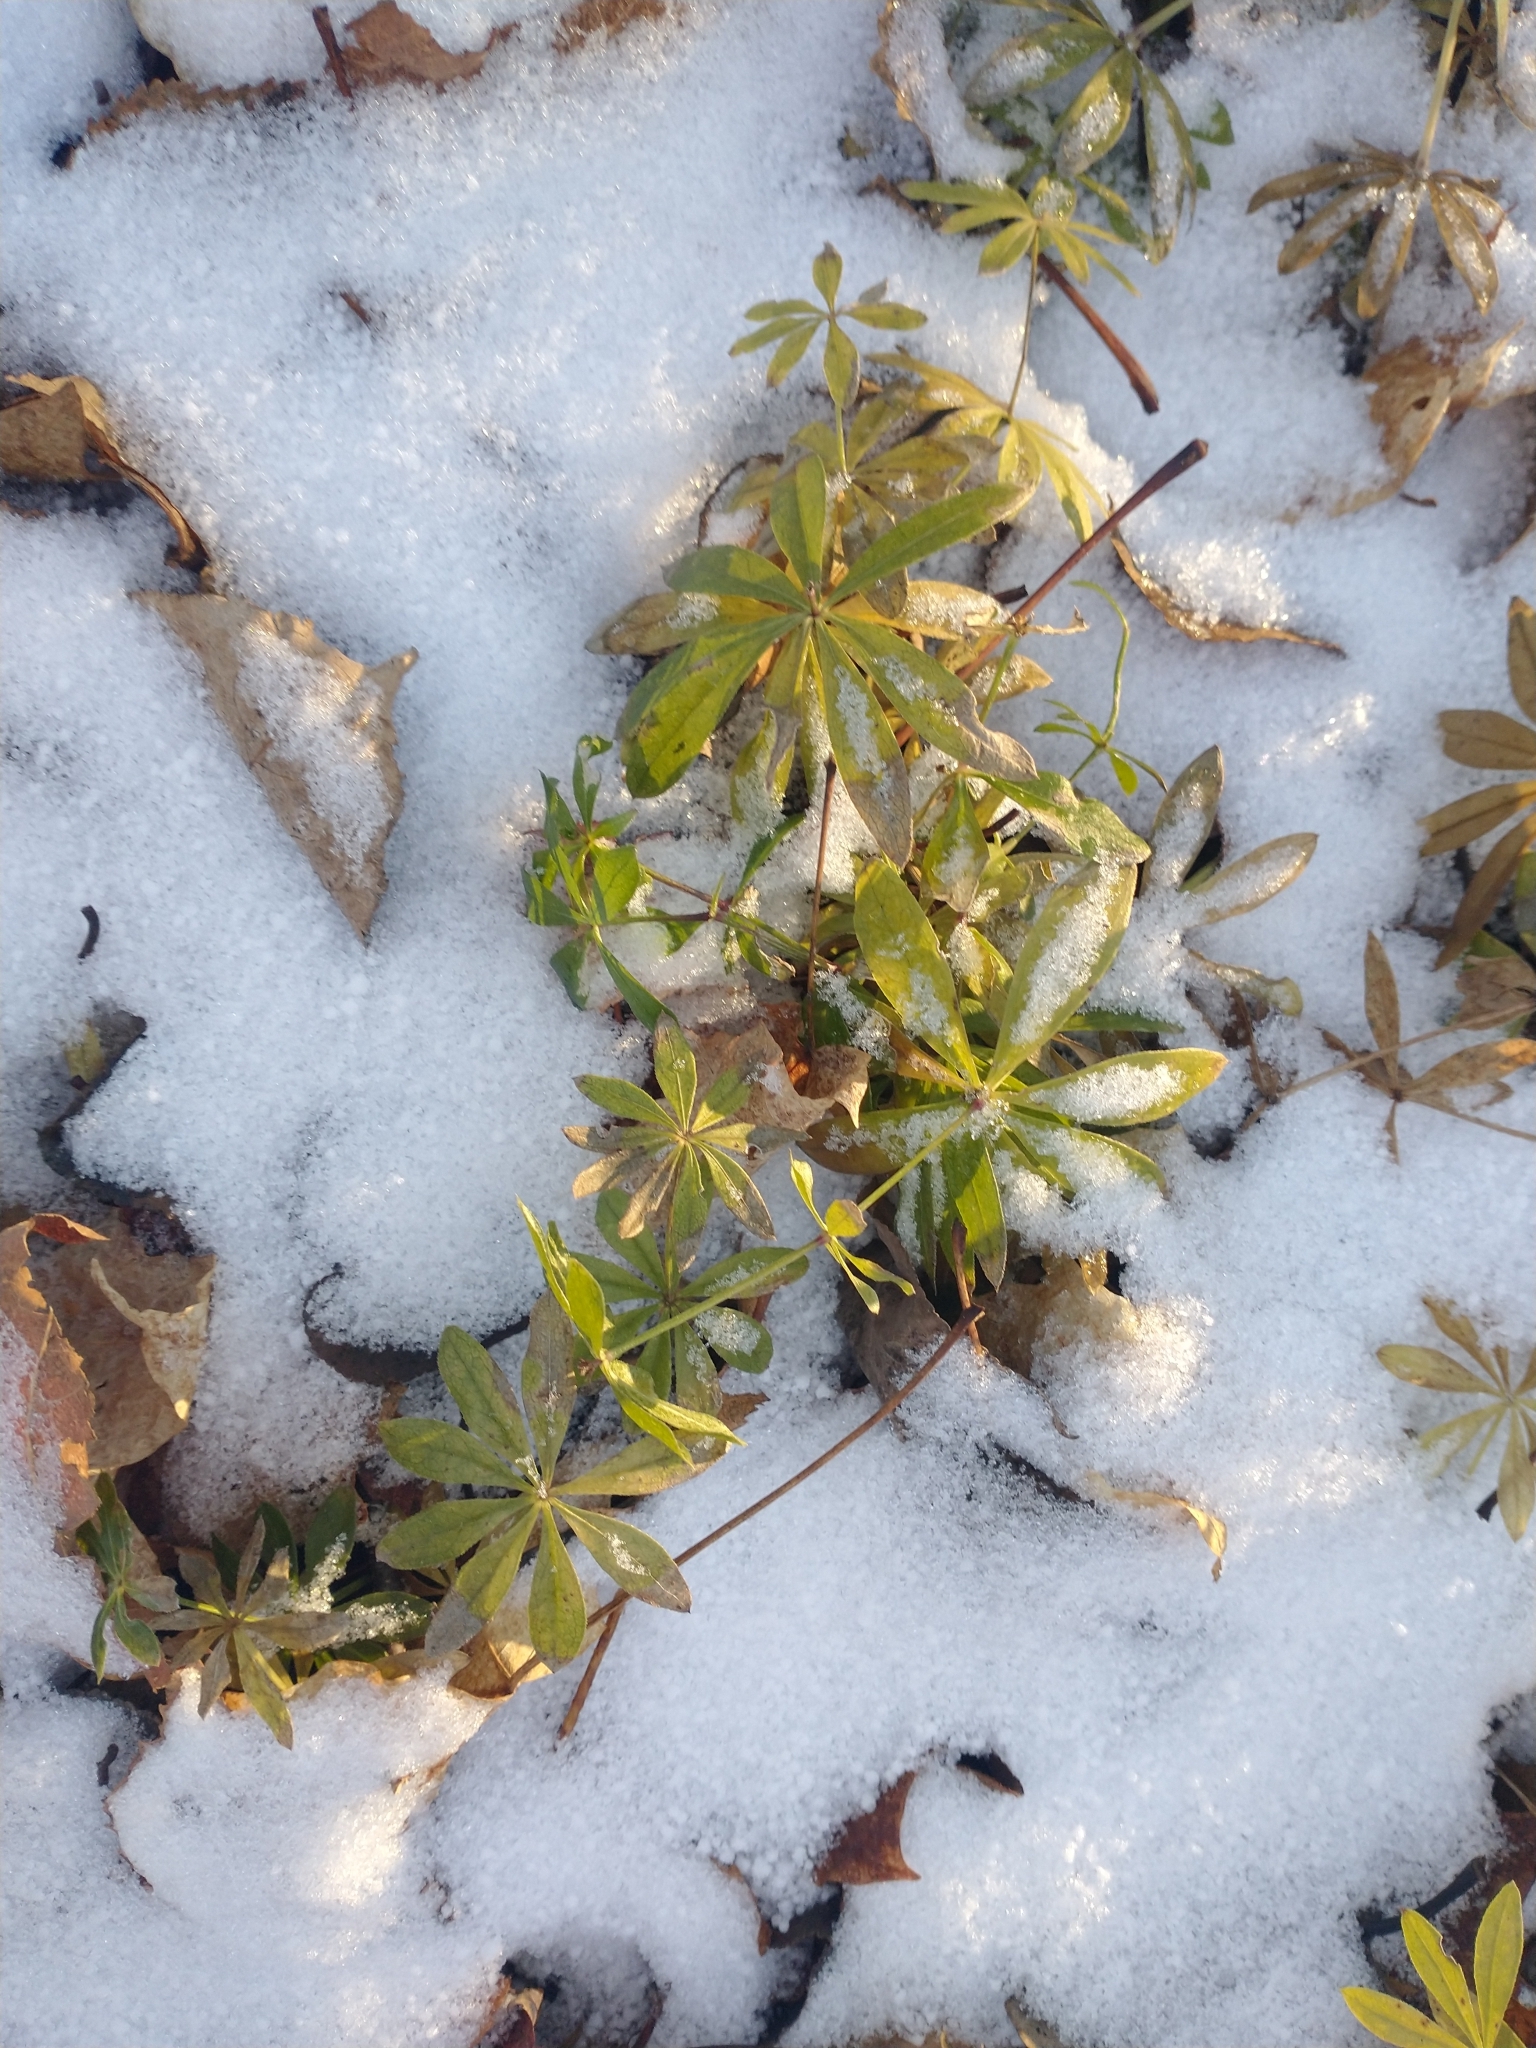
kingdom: Plantae
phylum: Tracheophyta
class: Magnoliopsida
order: Gentianales
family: Rubiaceae
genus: Galium
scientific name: Galium odoratum
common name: Sweet woodruff
